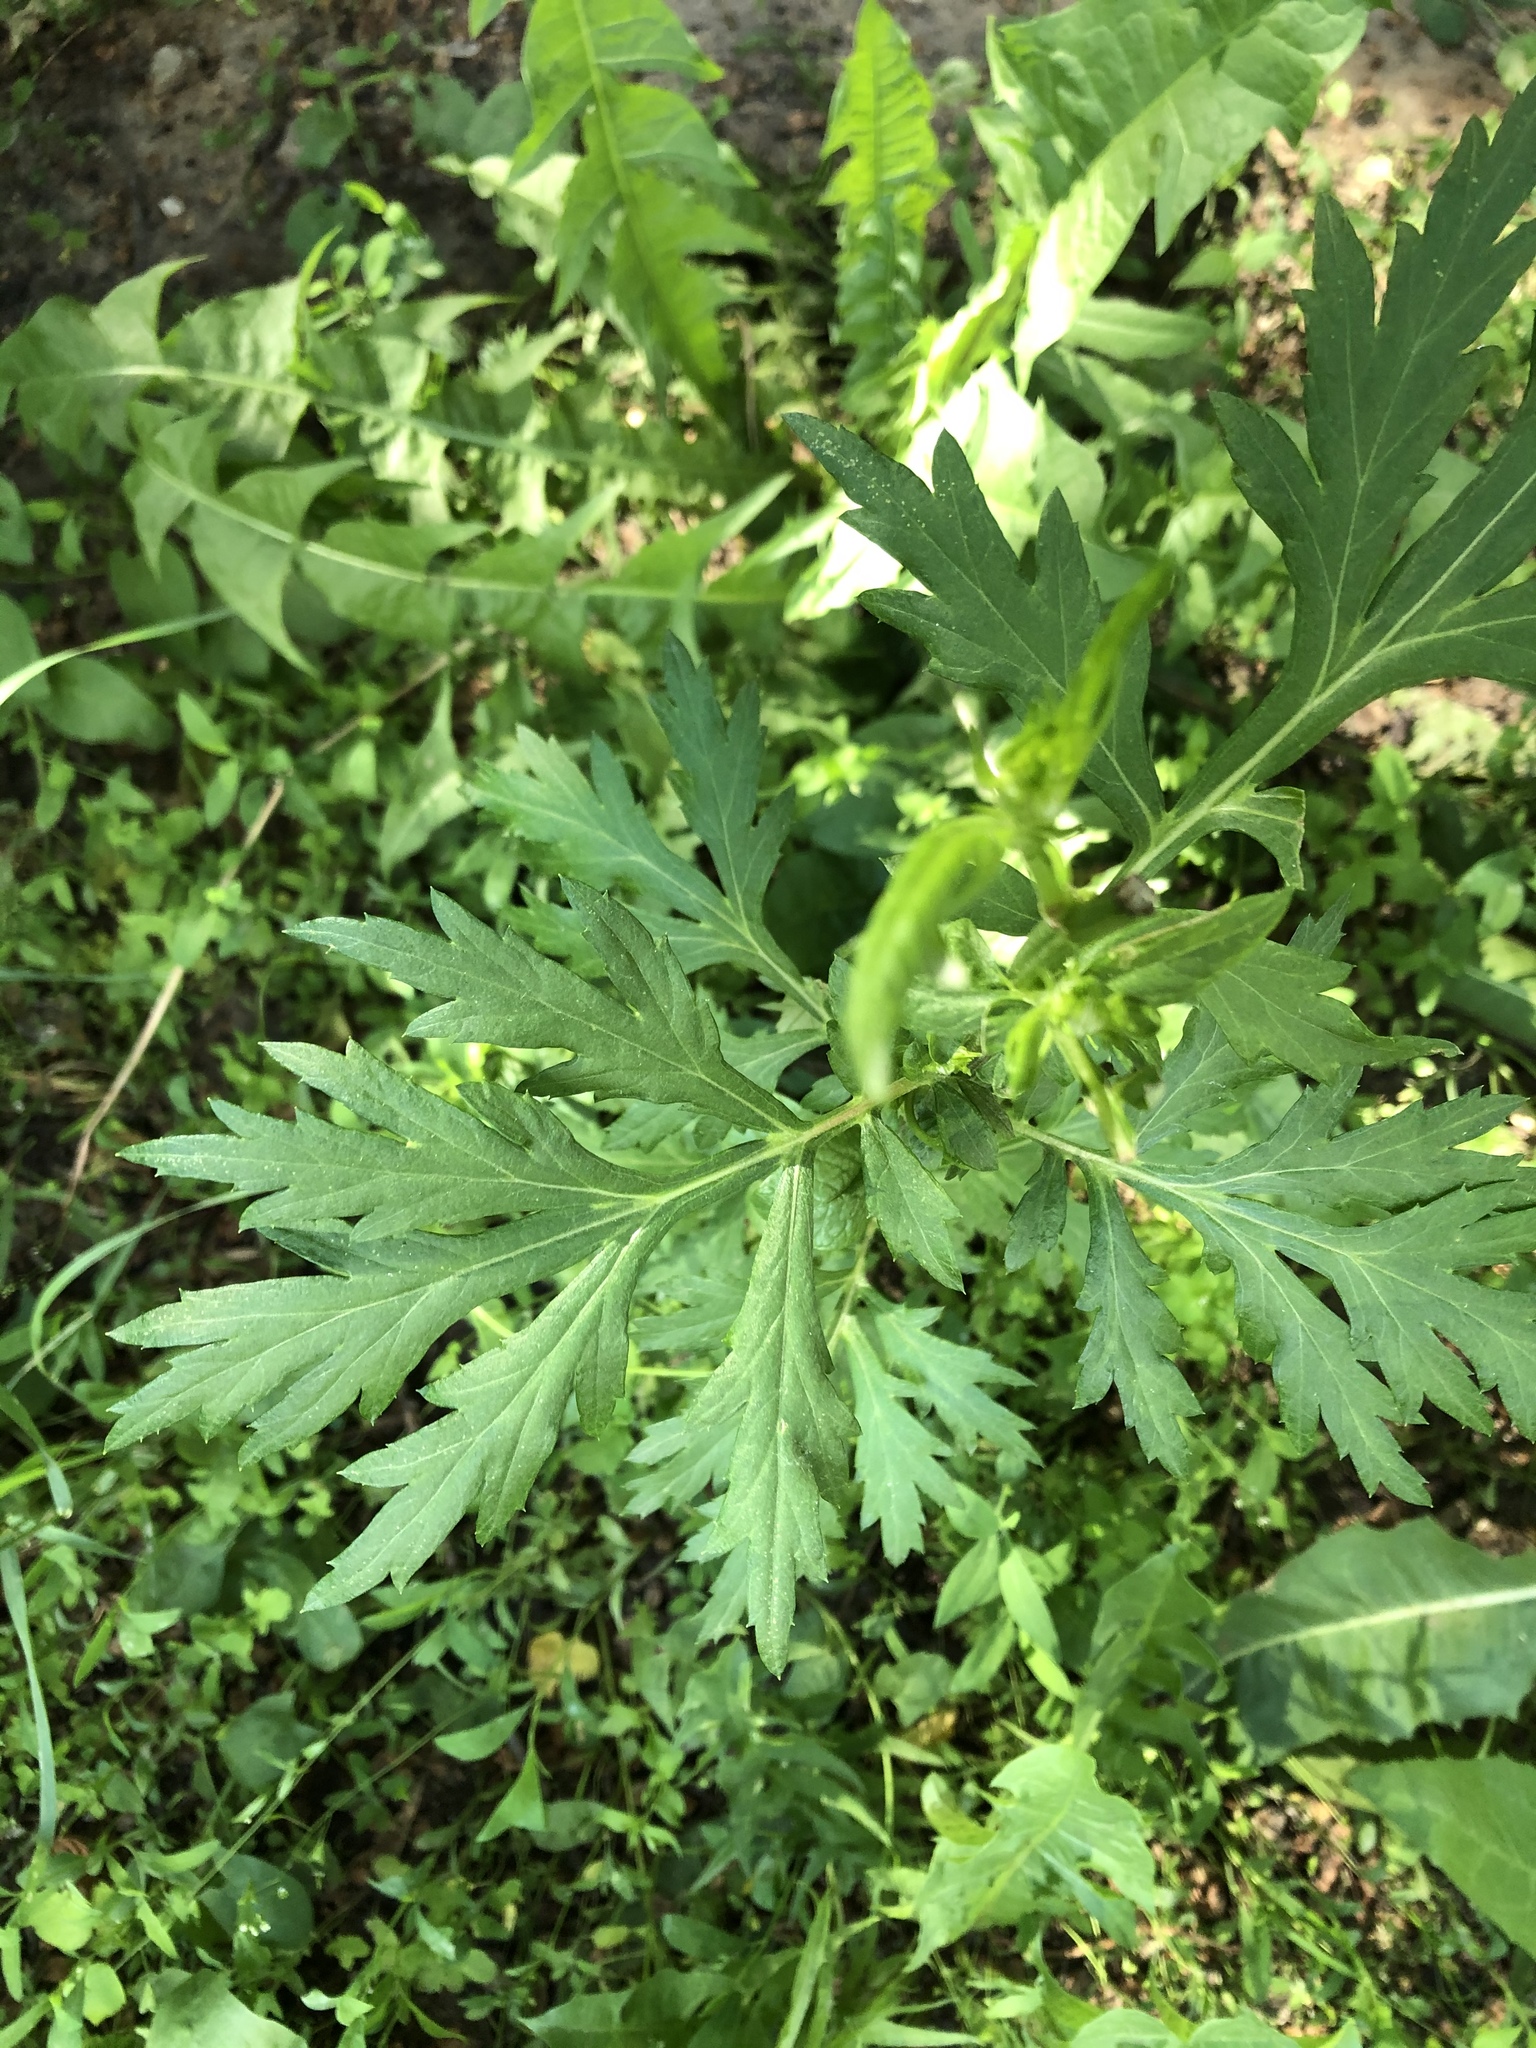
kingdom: Plantae
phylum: Tracheophyta
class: Magnoliopsida
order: Asterales
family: Asteraceae
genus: Artemisia
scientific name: Artemisia vulgaris
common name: Mugwort
